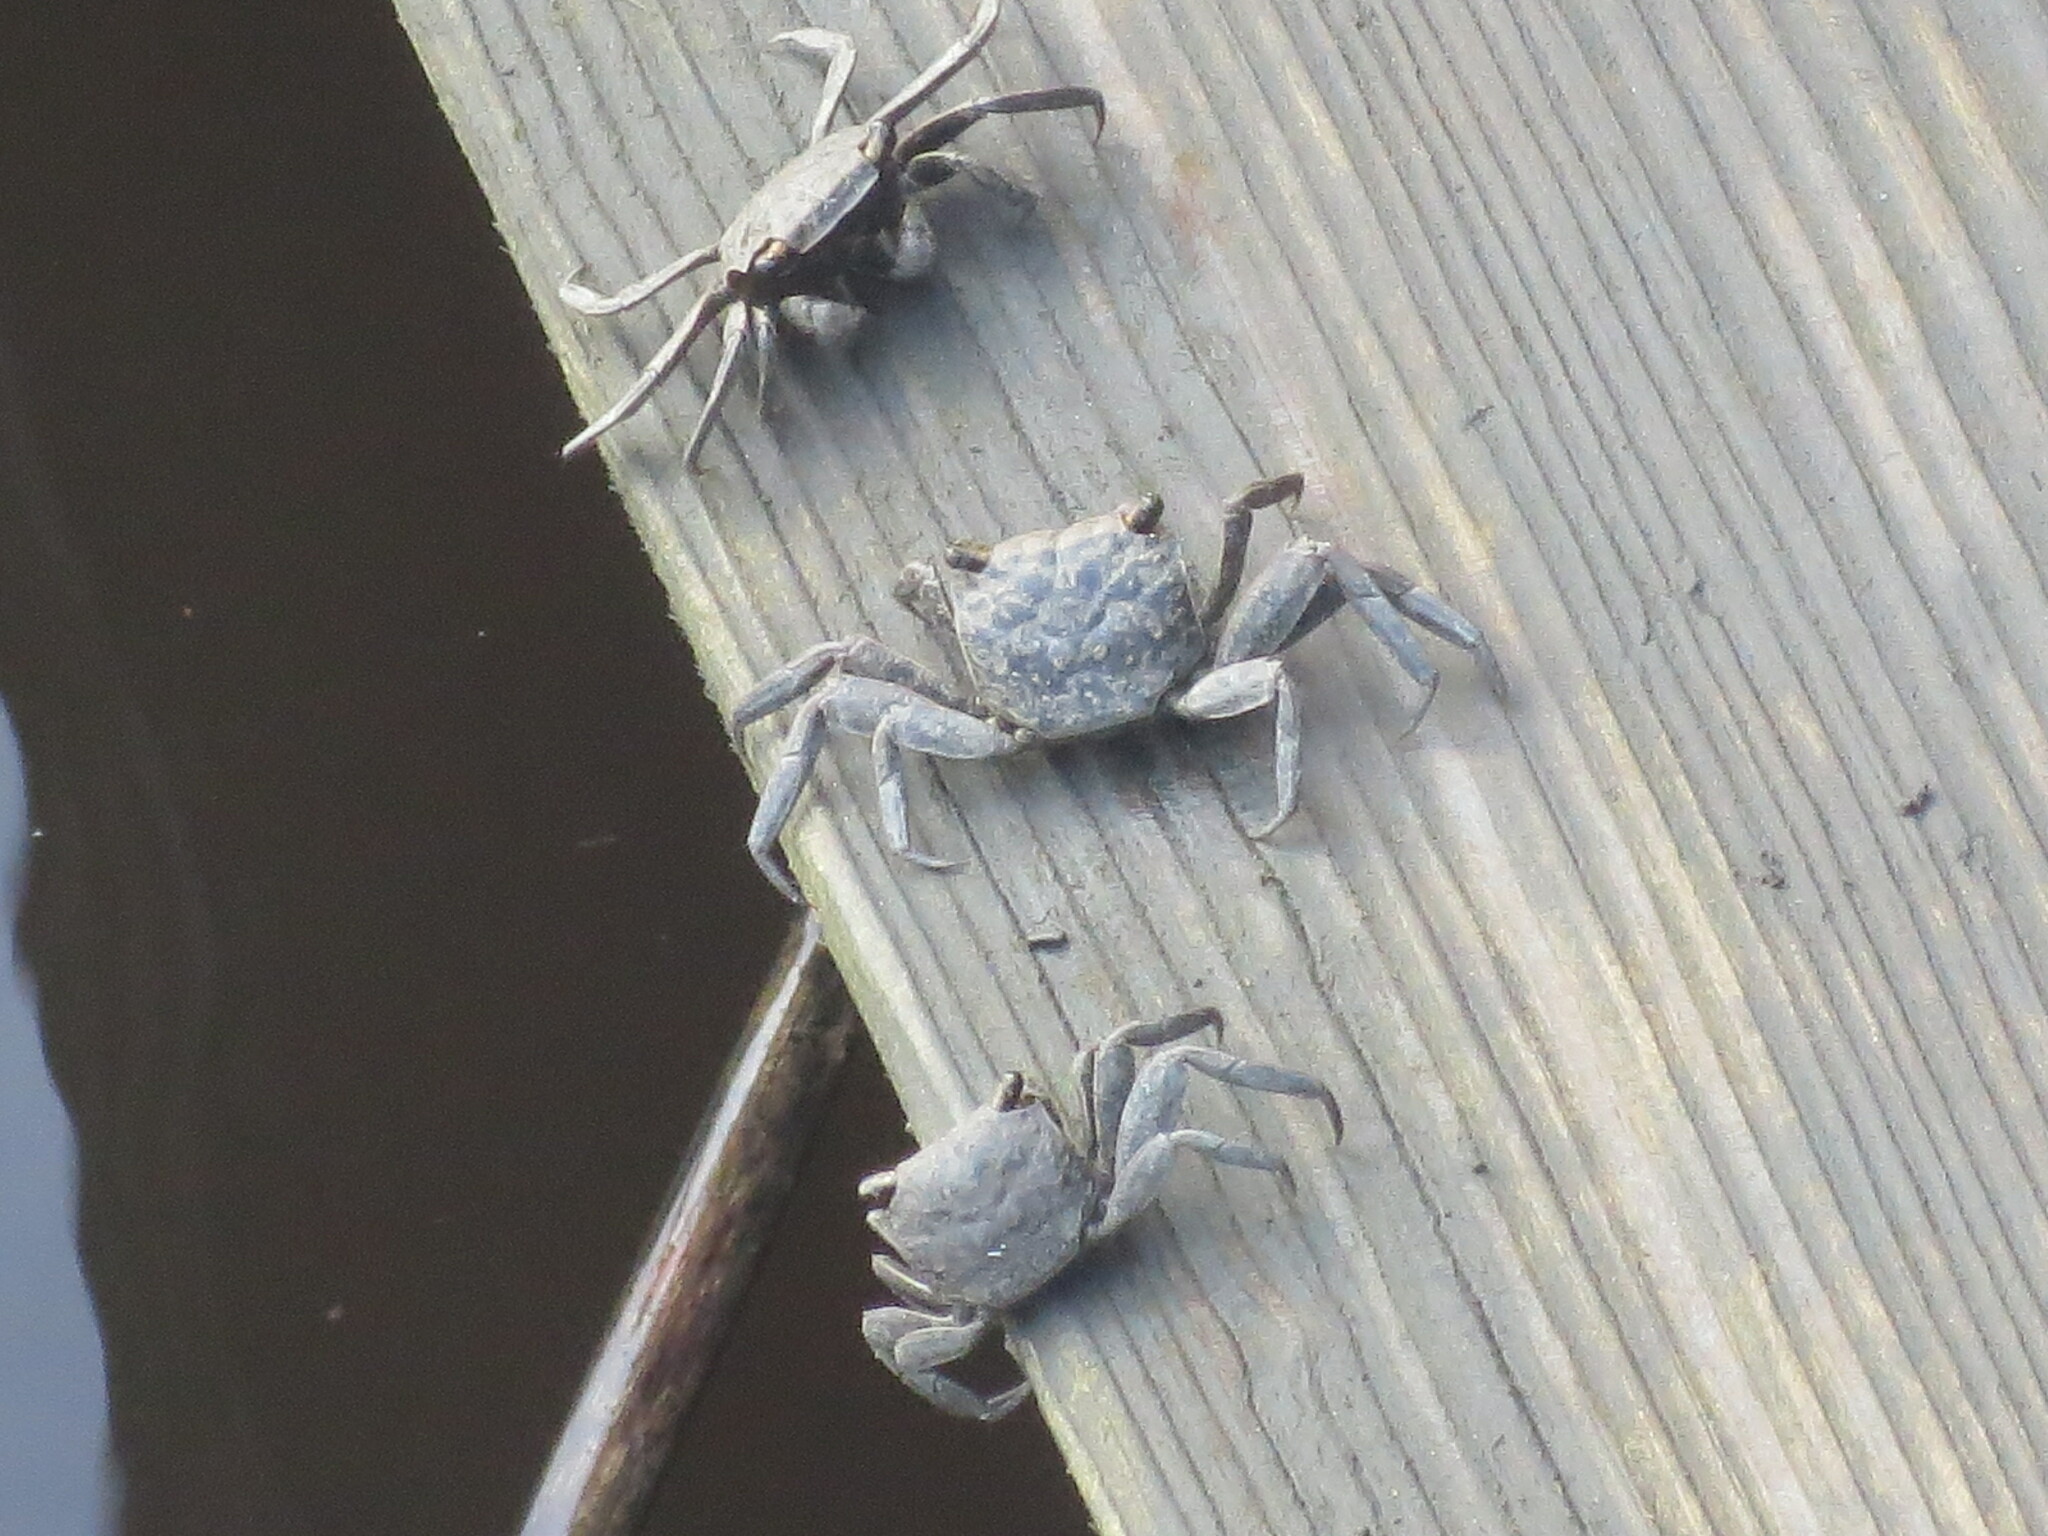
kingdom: Animalia
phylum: Arthropoda
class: Malacostraca
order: Decapoda
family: Sesarmidae
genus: Armases
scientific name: Armases cinereum
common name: Squareback marsh crab
